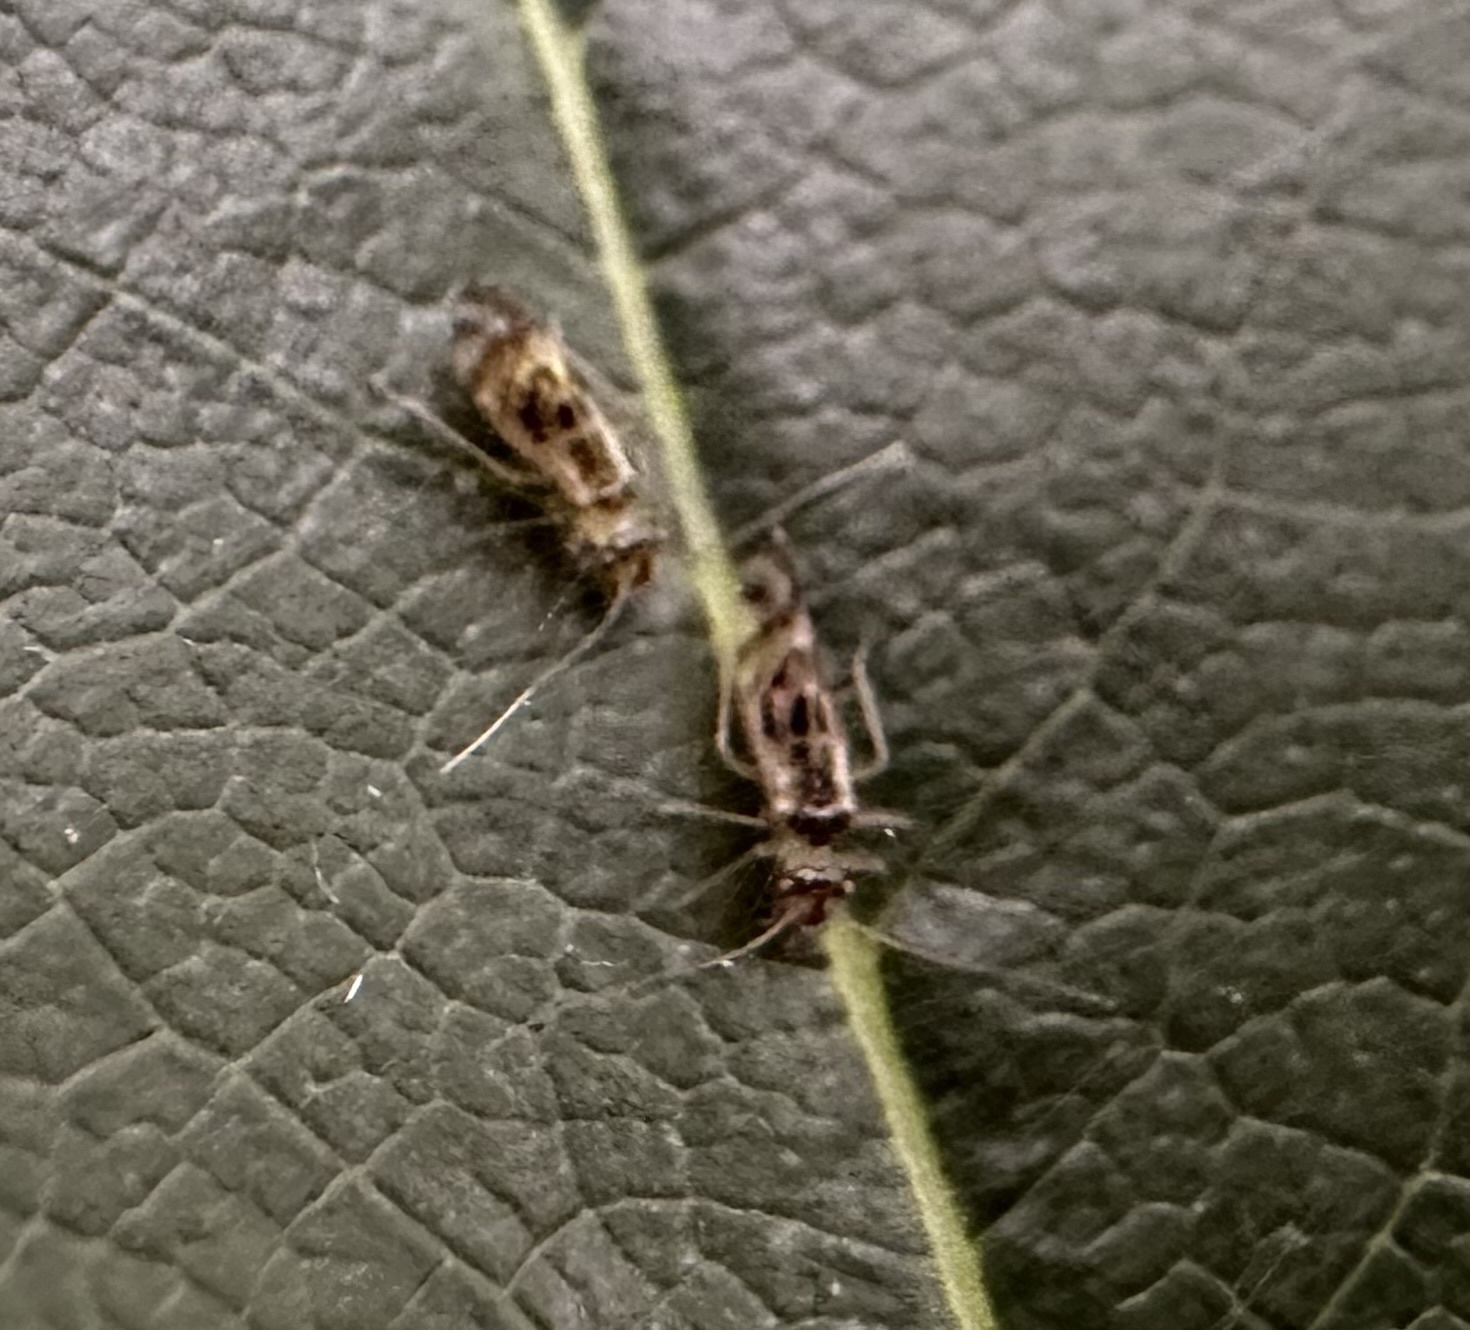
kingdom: Animalia
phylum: Arthropoda
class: Insecta
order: Psocodea
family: Stenopsocidae
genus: Graphopsocus
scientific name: Graphopsocus cruciatus
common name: Lizard bark louse
